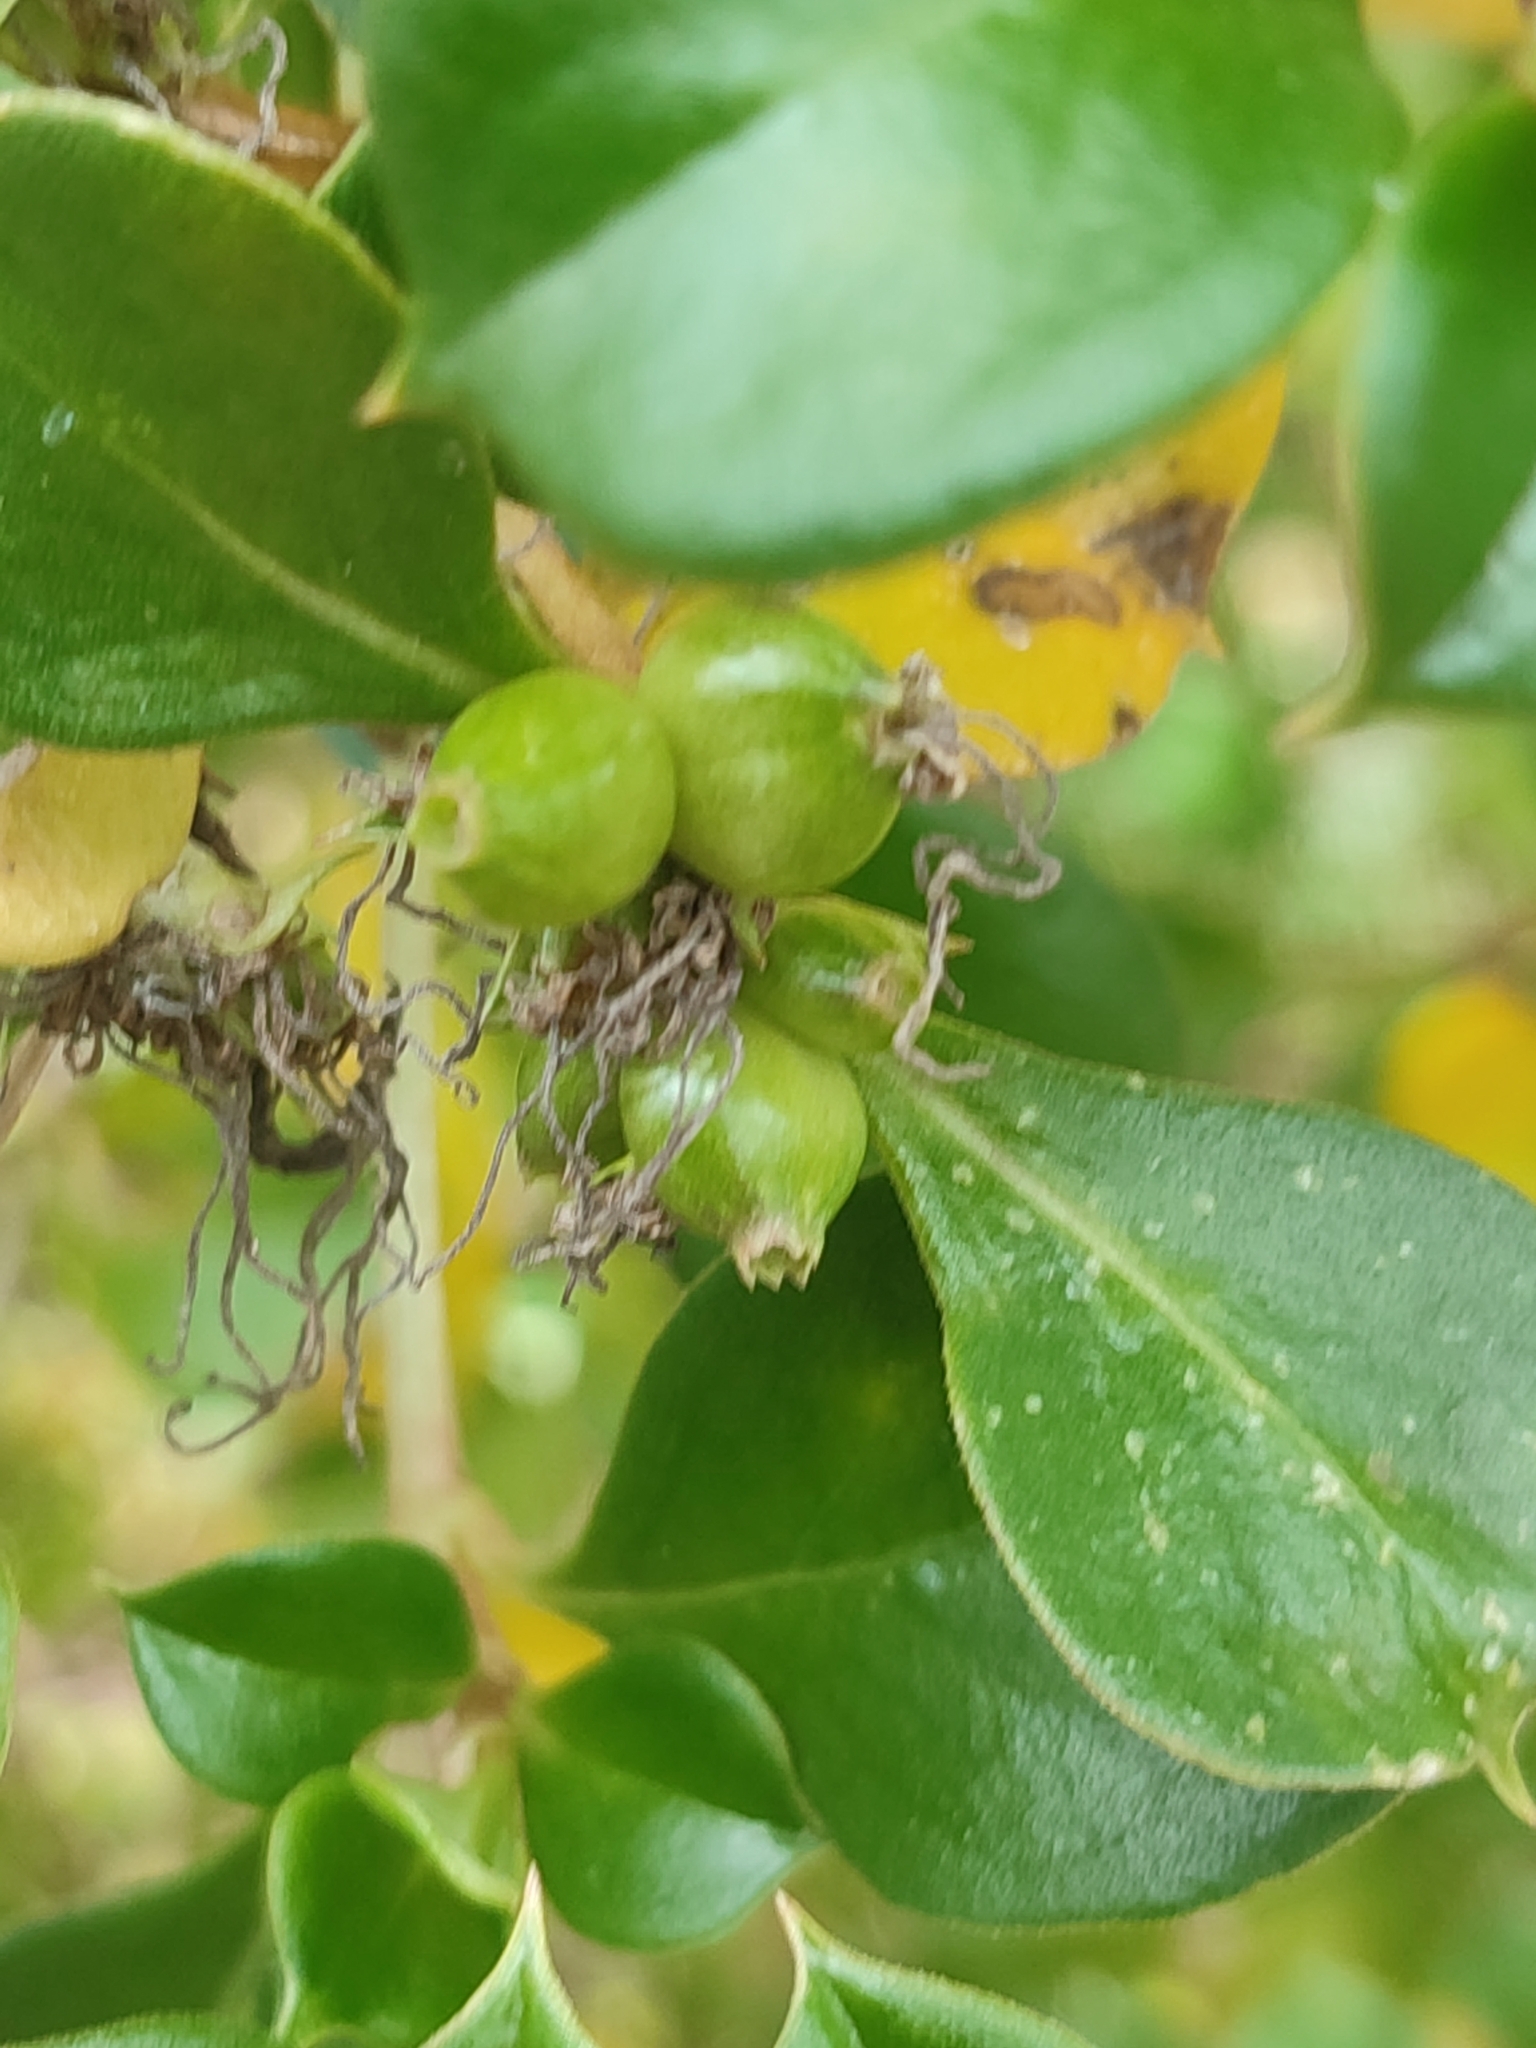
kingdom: Plantae
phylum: Tracheophyta
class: Magnoliopsida
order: Gentianales
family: Rubiaceae
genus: Coprosma
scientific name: Coprosma hirtella
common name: Rough coprosma
